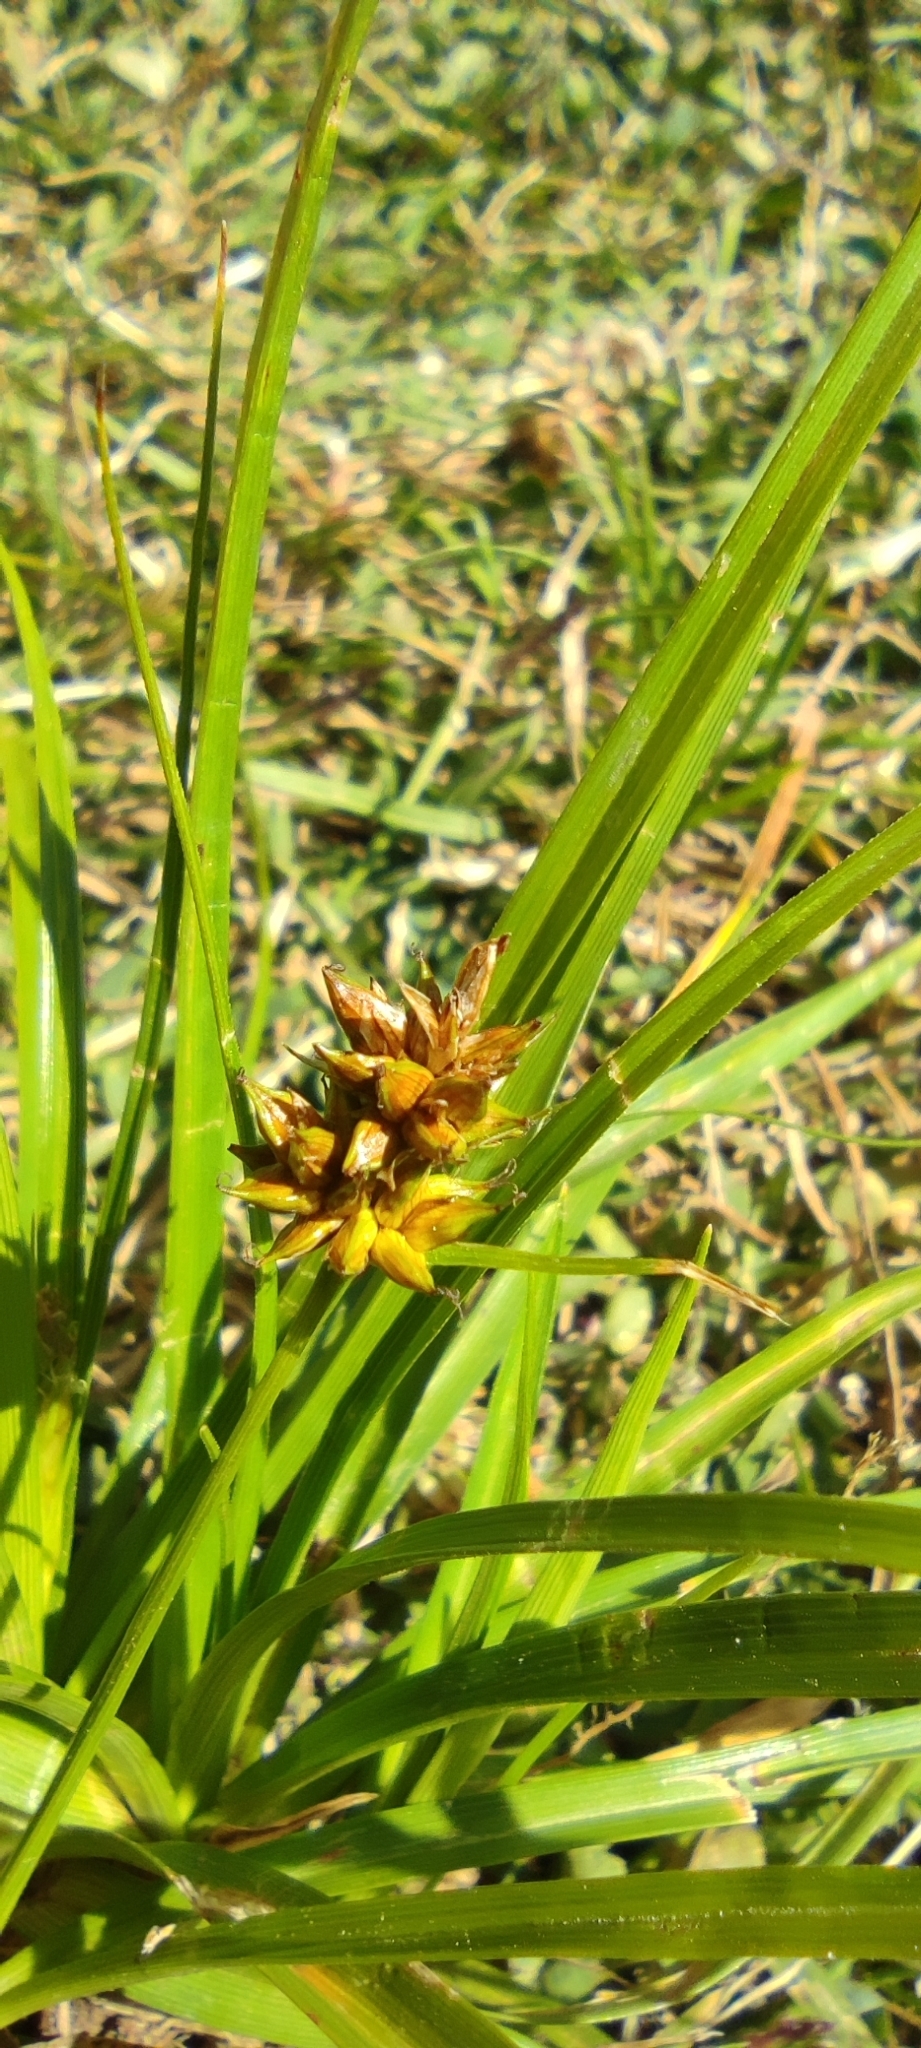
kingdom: Plantae
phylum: Tracheophyta
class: Liliopsida
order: Poales
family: Cyperaceae
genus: Carex
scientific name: Carex bracteosa
